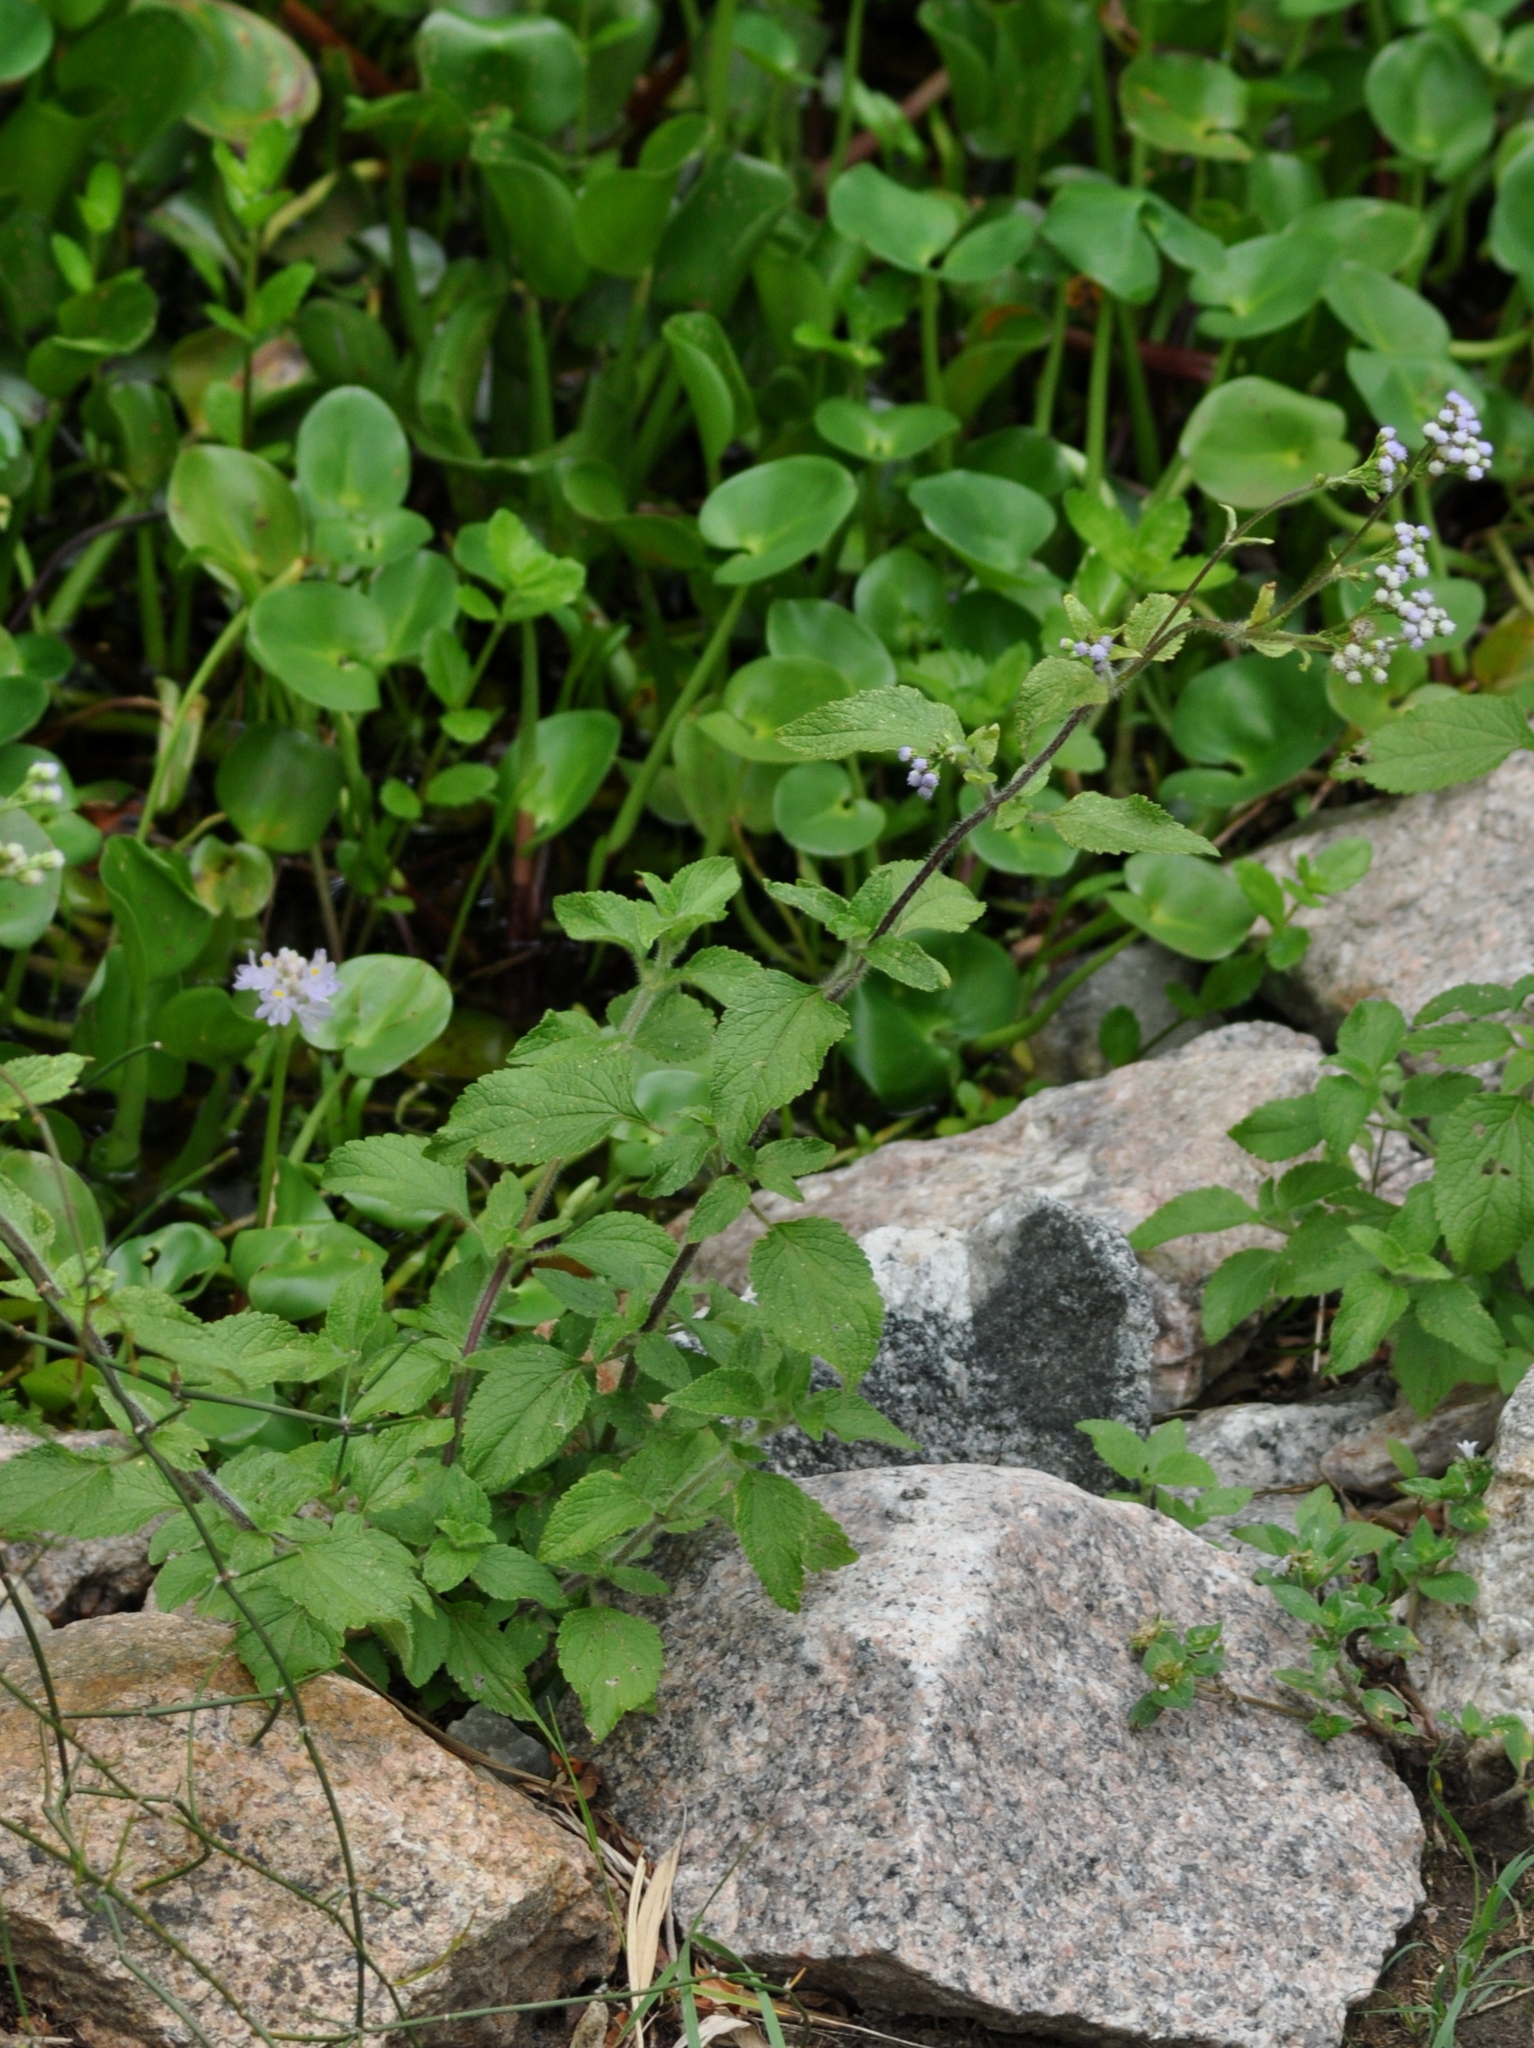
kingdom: Plantae
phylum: Tracheophyta
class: Magnoliopsida
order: Asterales
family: Asteraceae
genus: Ageratum
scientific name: Ageratum conyzoides
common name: Tropical whiteweed
